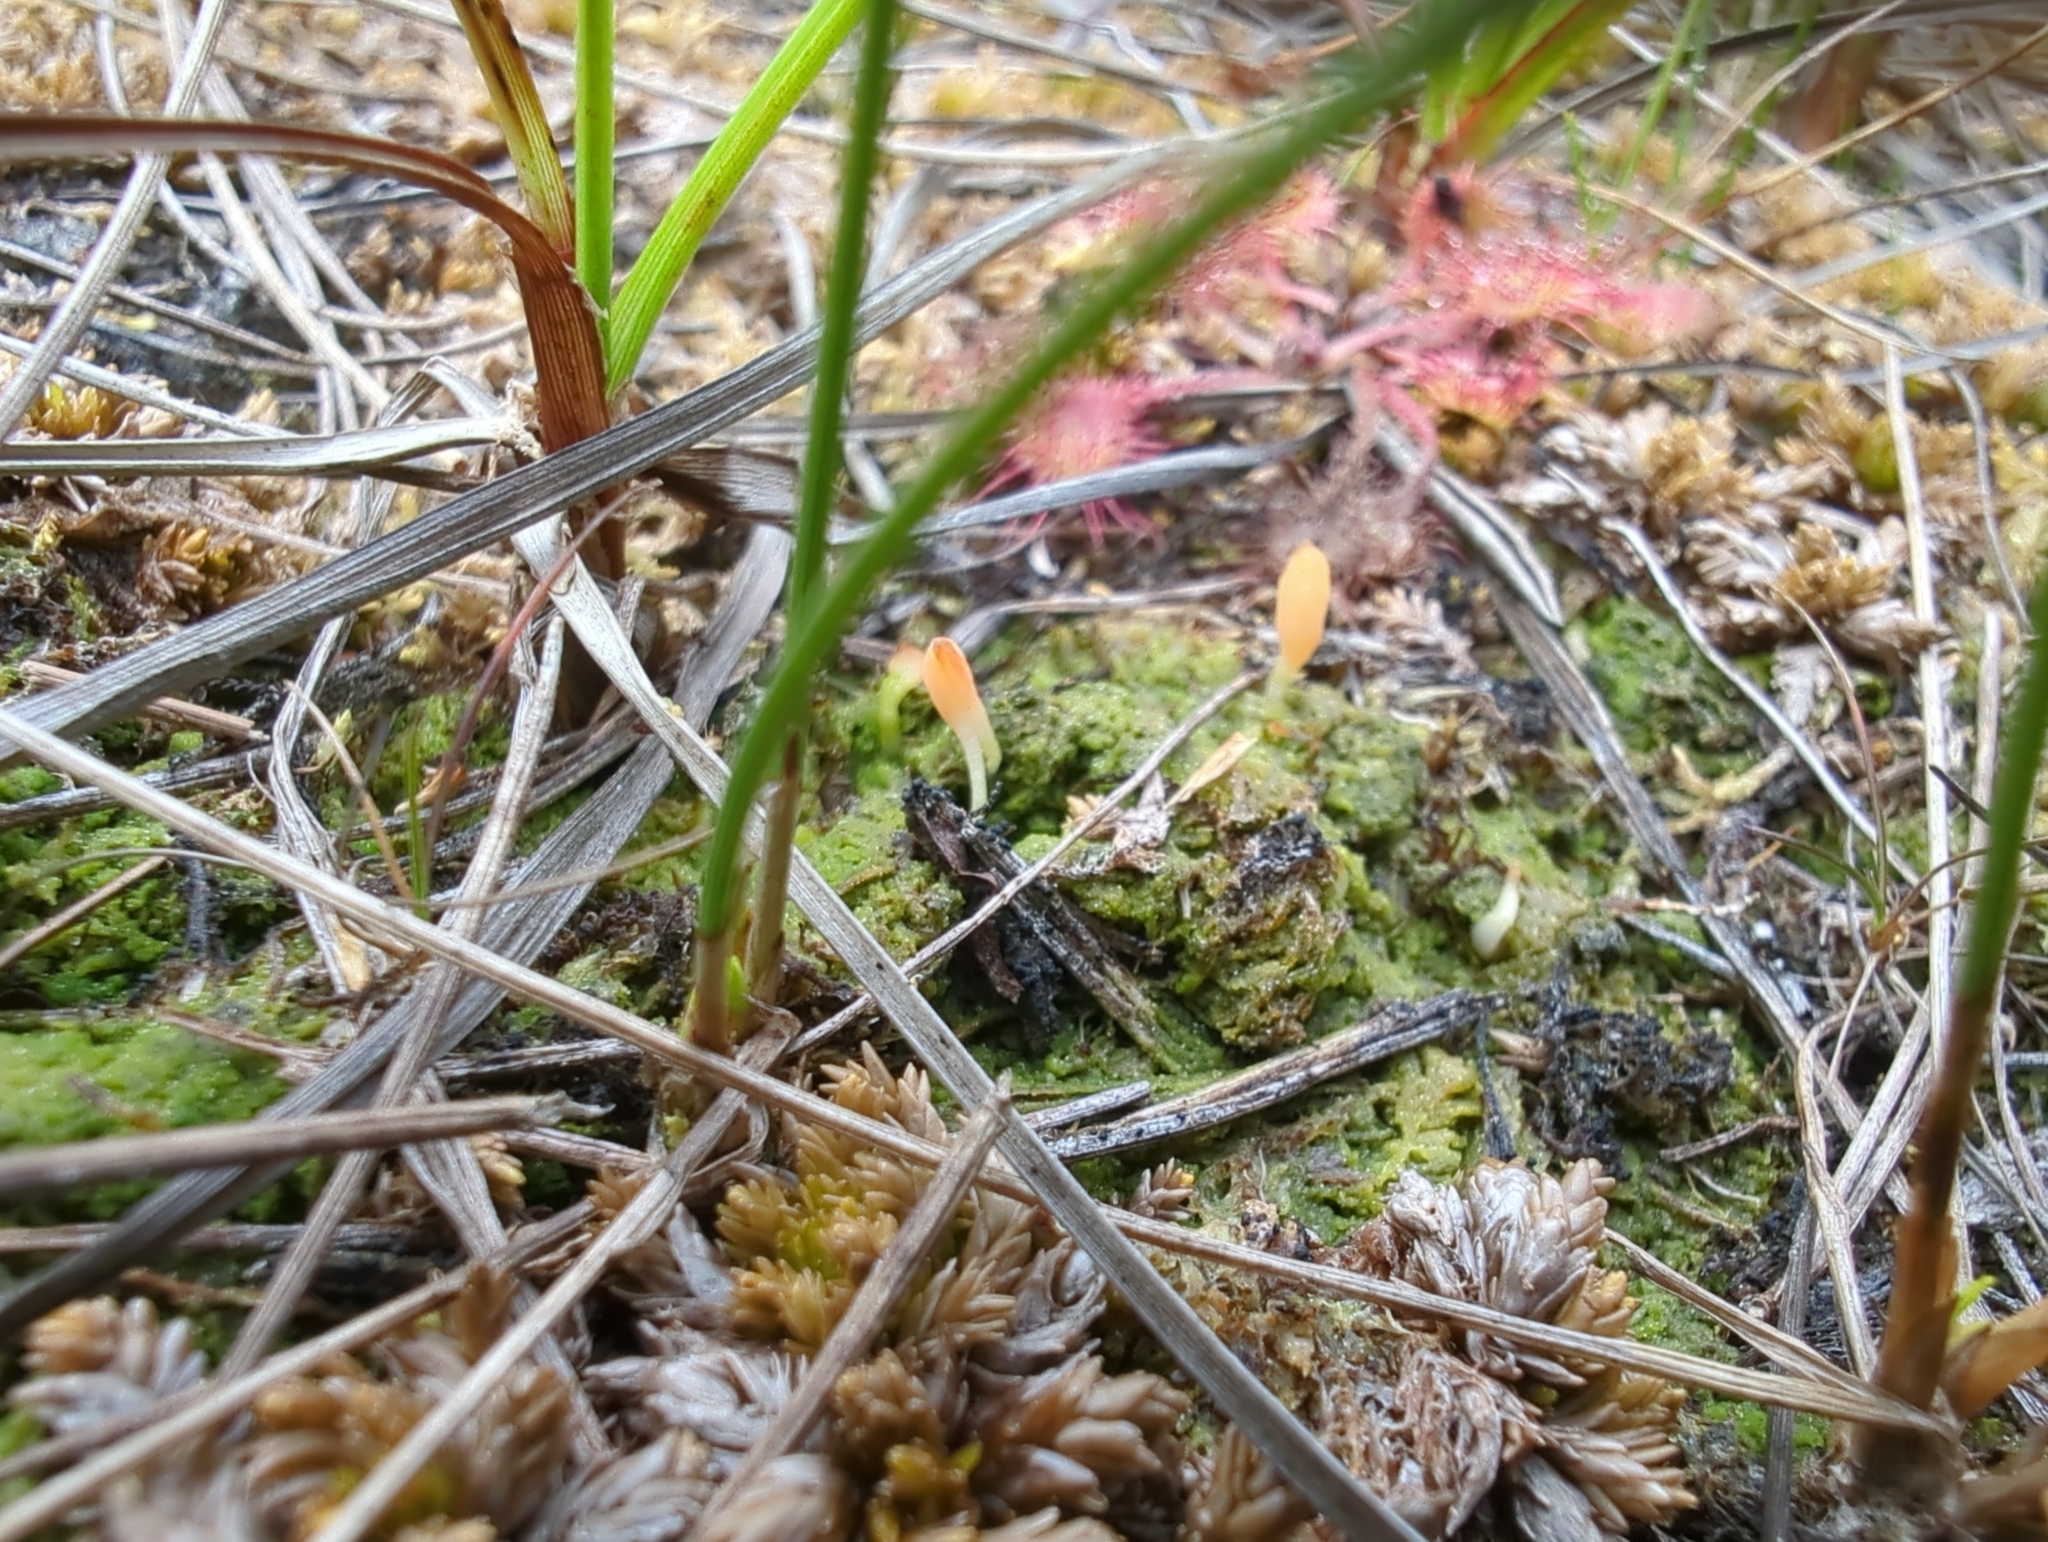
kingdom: Fungi
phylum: Basidiomycota
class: Agaricomycetes
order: Cantharellales
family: Hydnaceae
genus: Multiclavula
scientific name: Multiclavula vernalis
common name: Moss club
